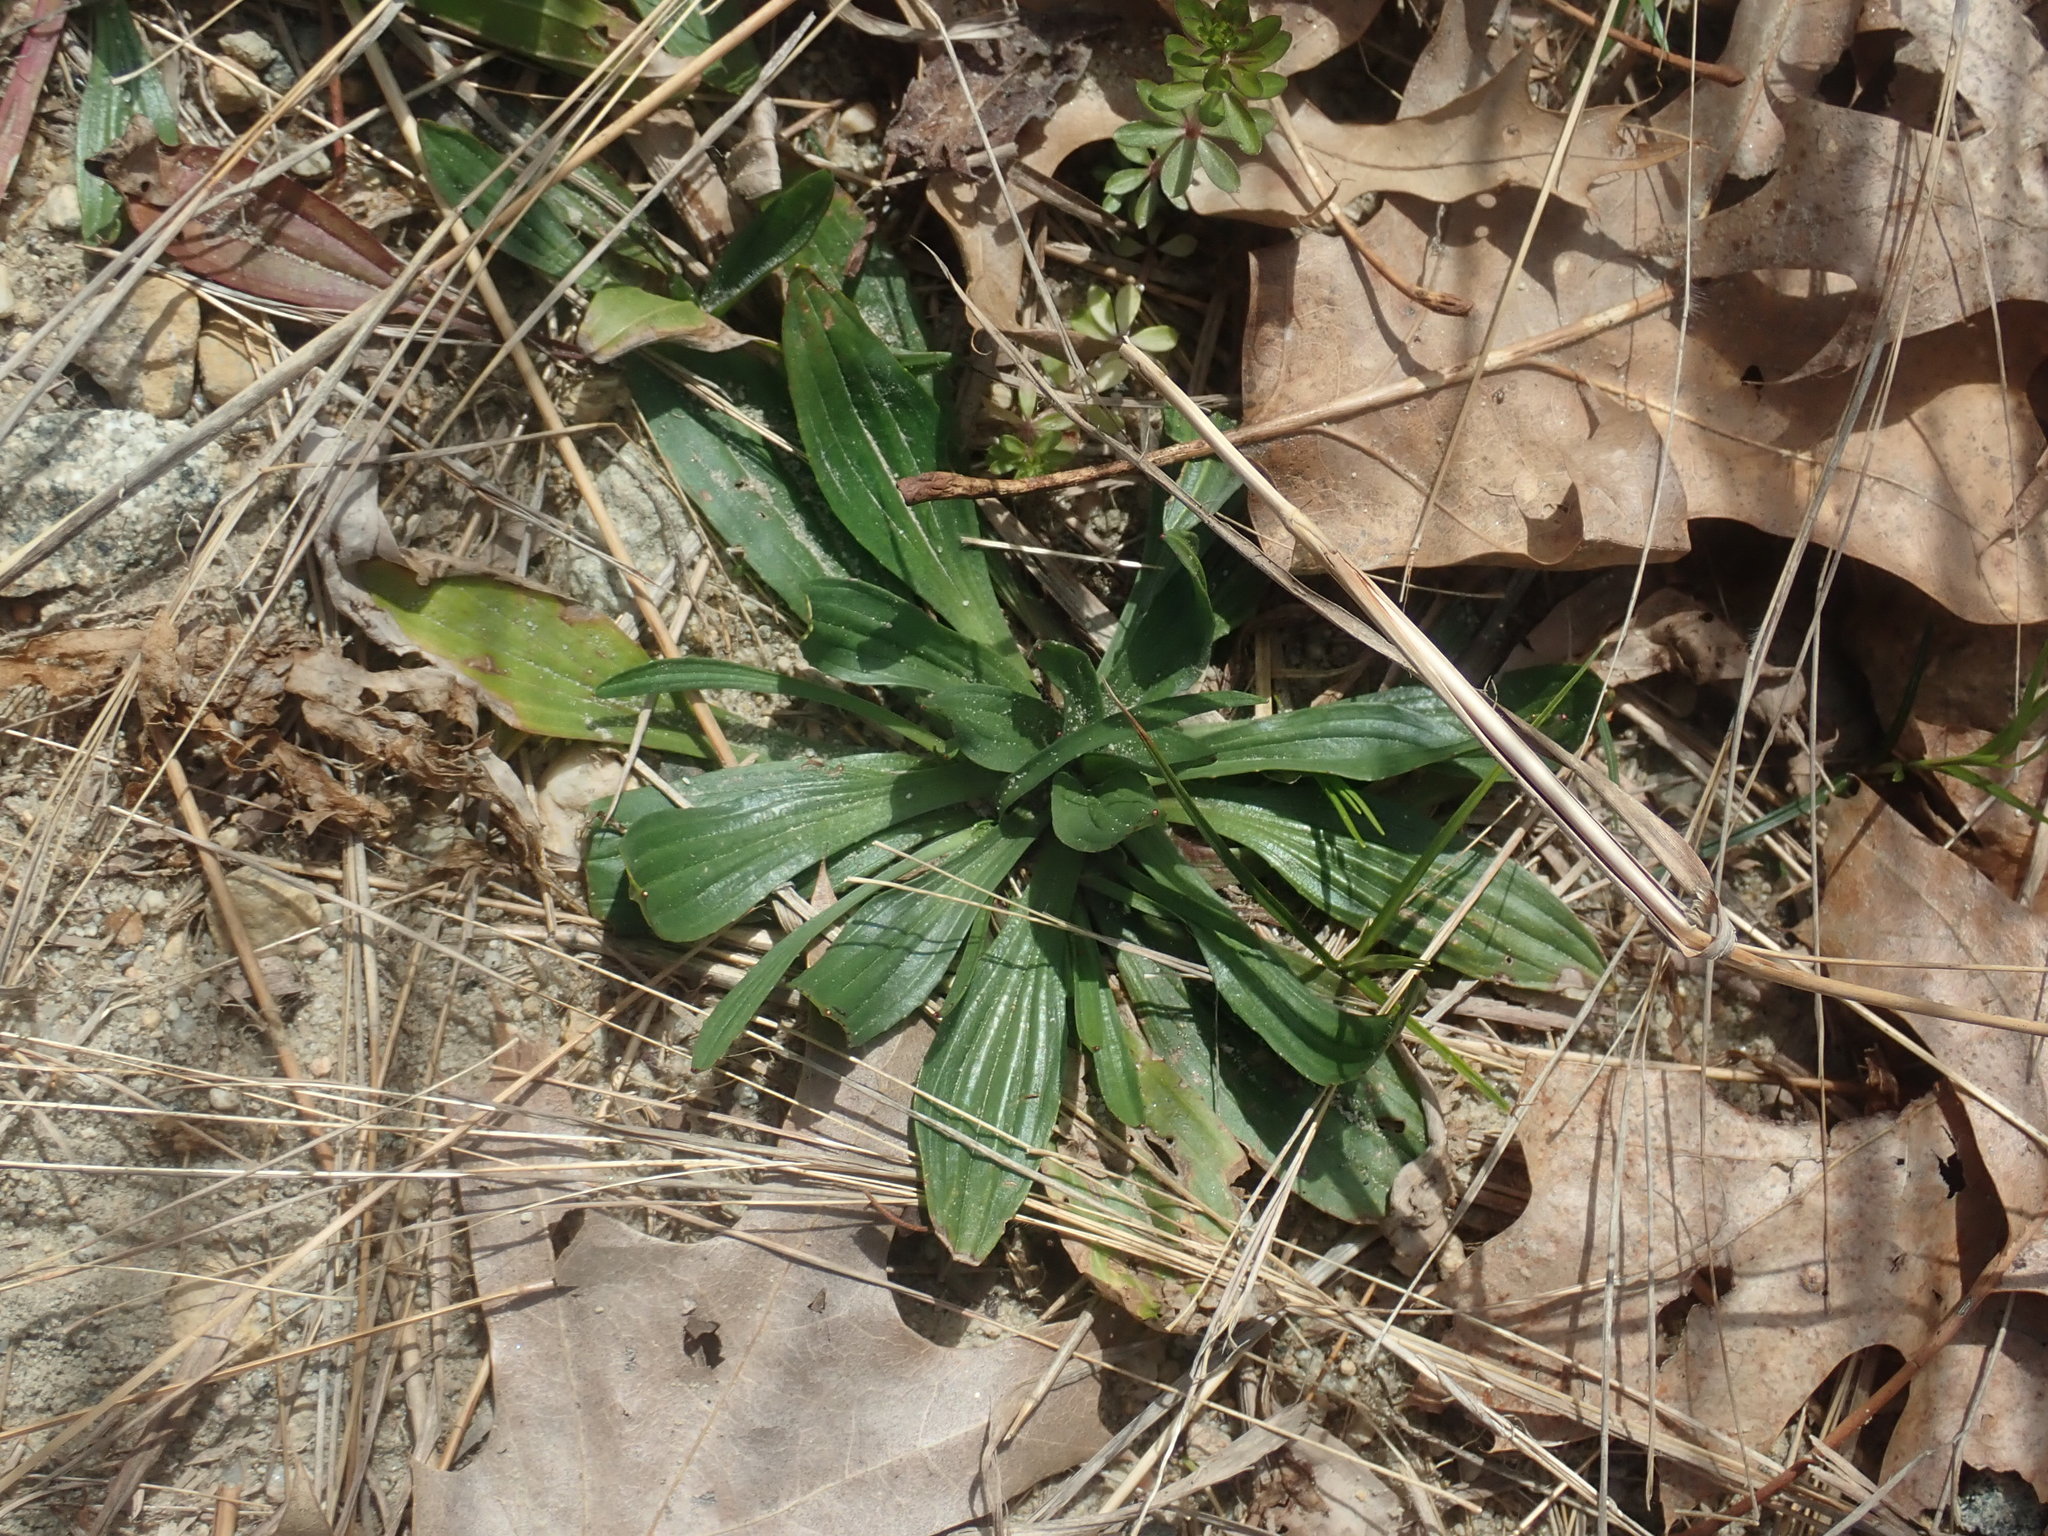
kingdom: Plantae
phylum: Tracheophyta
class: Magnoliopsida
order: Lamiales
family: Plantaginaceae
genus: Plantago
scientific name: Plantago lanceolata
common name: Ribwort plantain
